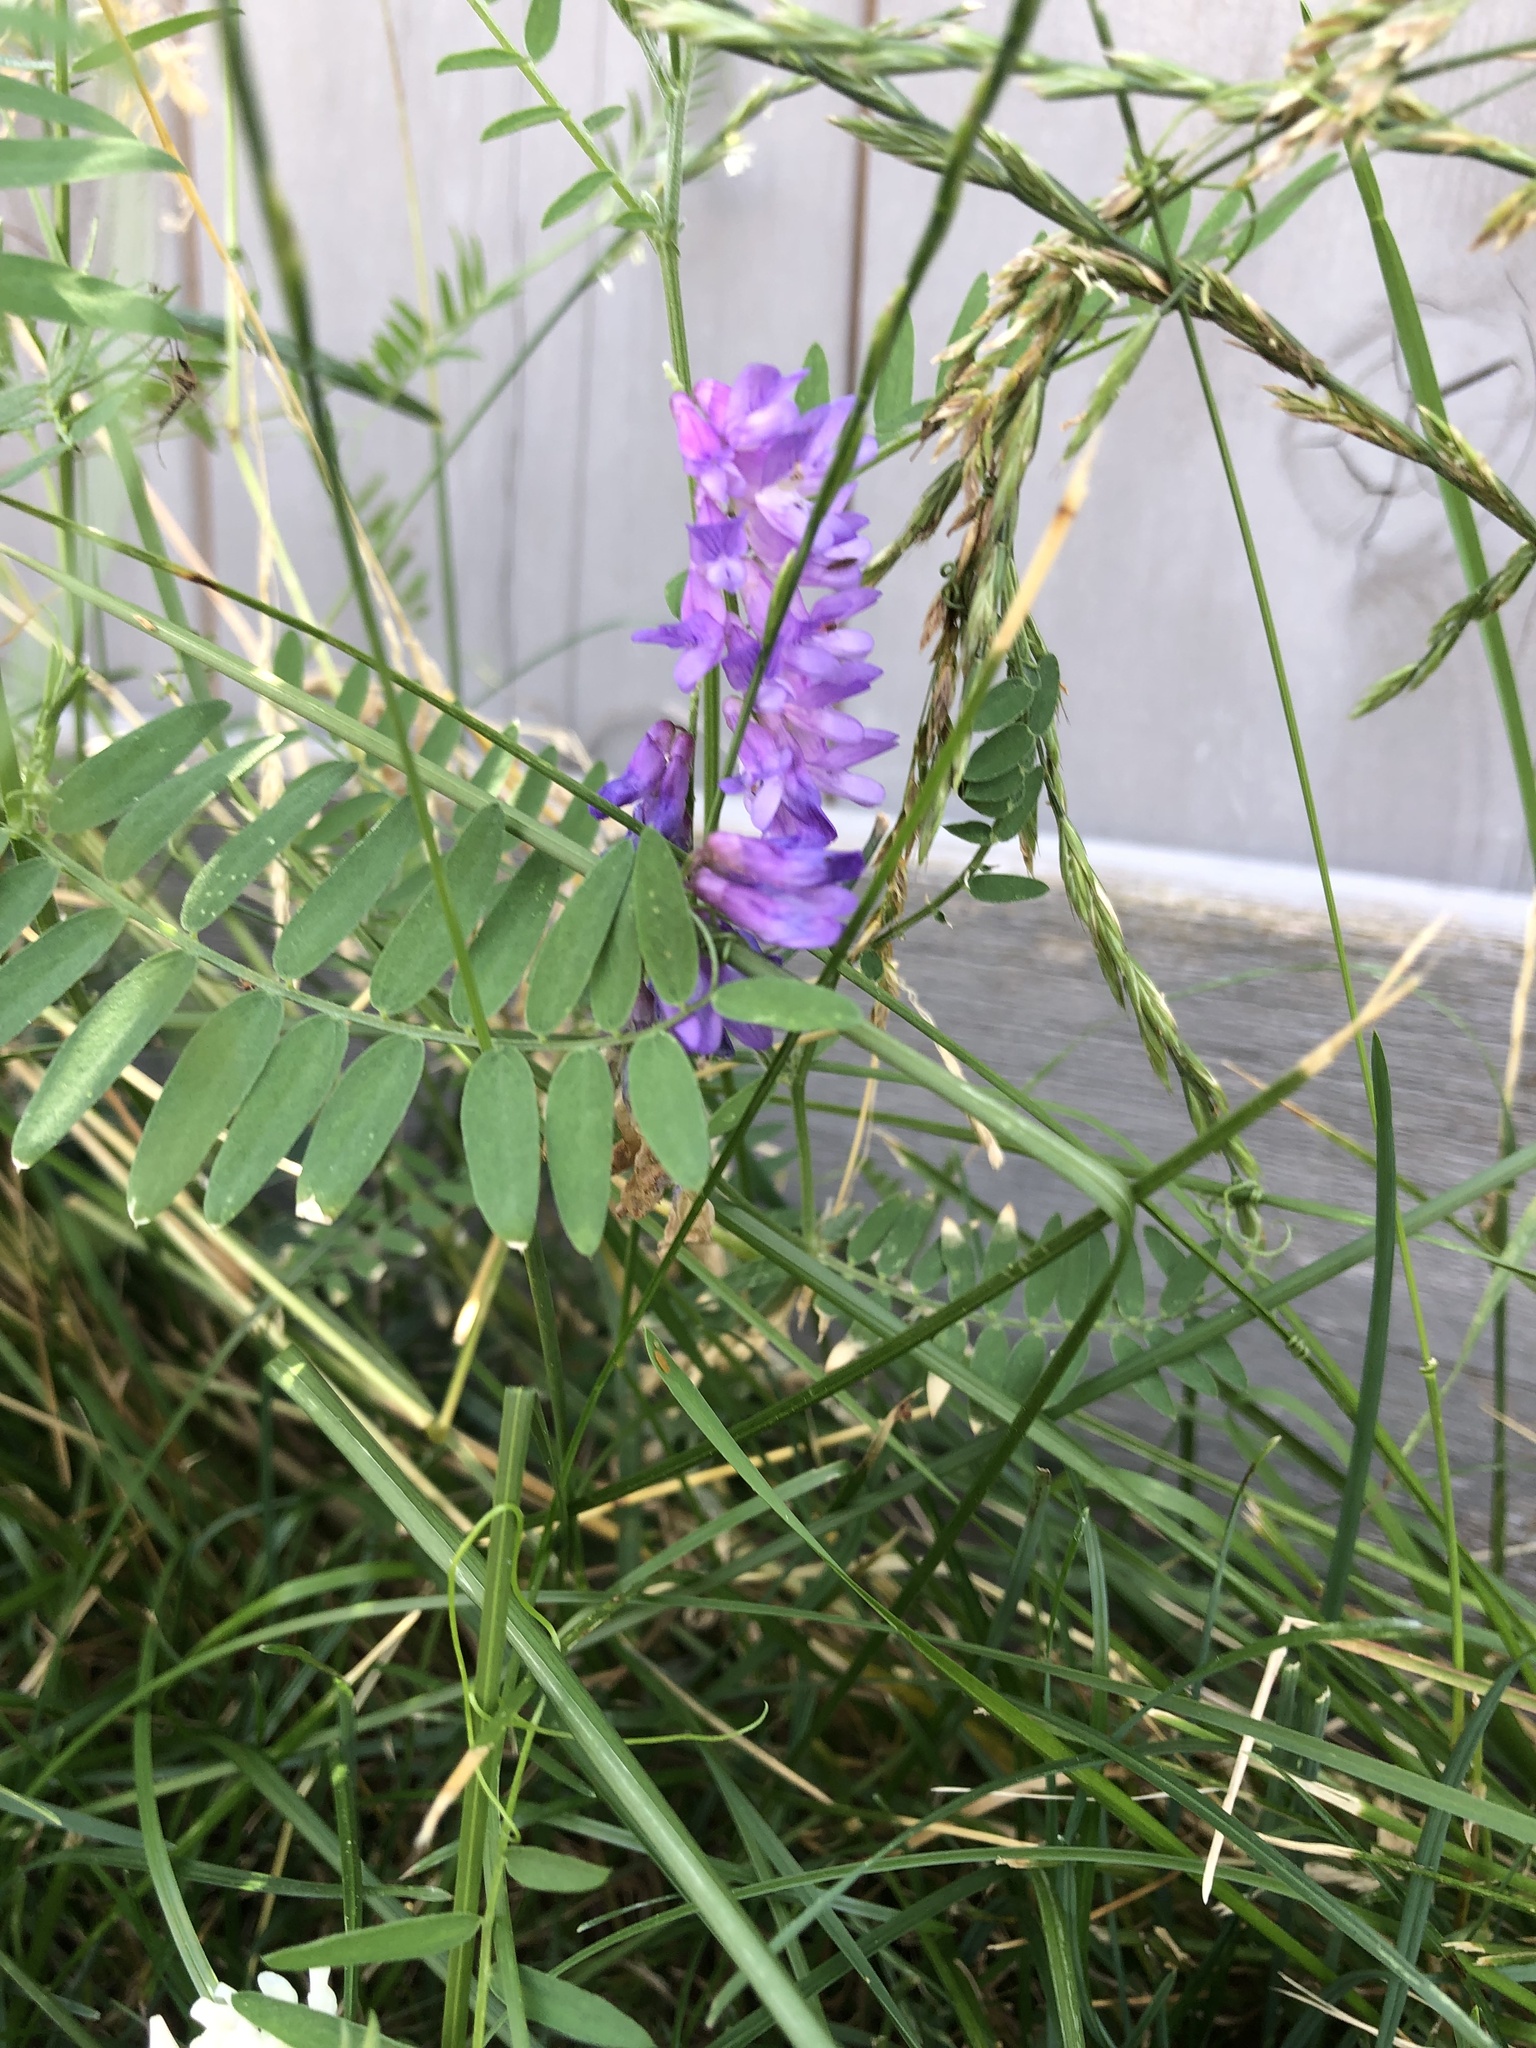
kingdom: Plantae
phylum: Tracheophyta
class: Magnoliopsida
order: Fabales
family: Fabaceae
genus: Vicia
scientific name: Vicia cracca
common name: Bird vetch
